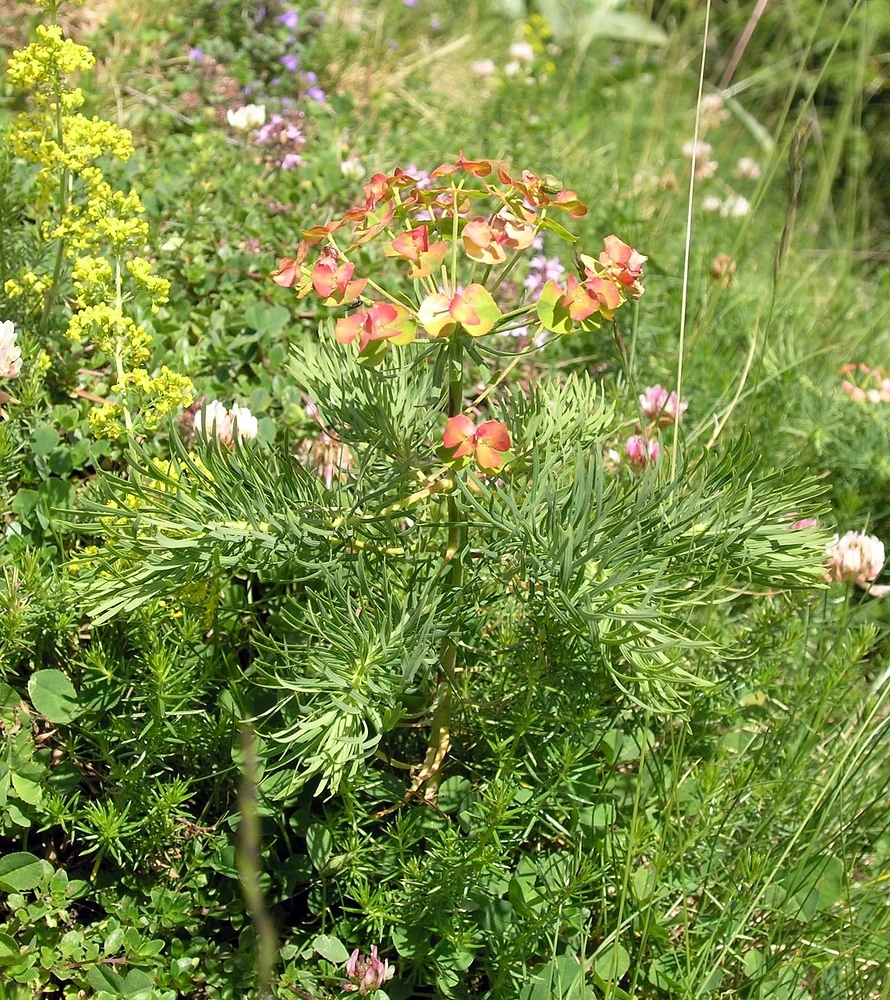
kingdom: Plantae
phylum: Tracheophyta
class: Magnoliopsida
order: Malpighiales
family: Euphorbiaceae
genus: Euphorbia
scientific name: Euphorbia cyparissias
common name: Cypress spurge
